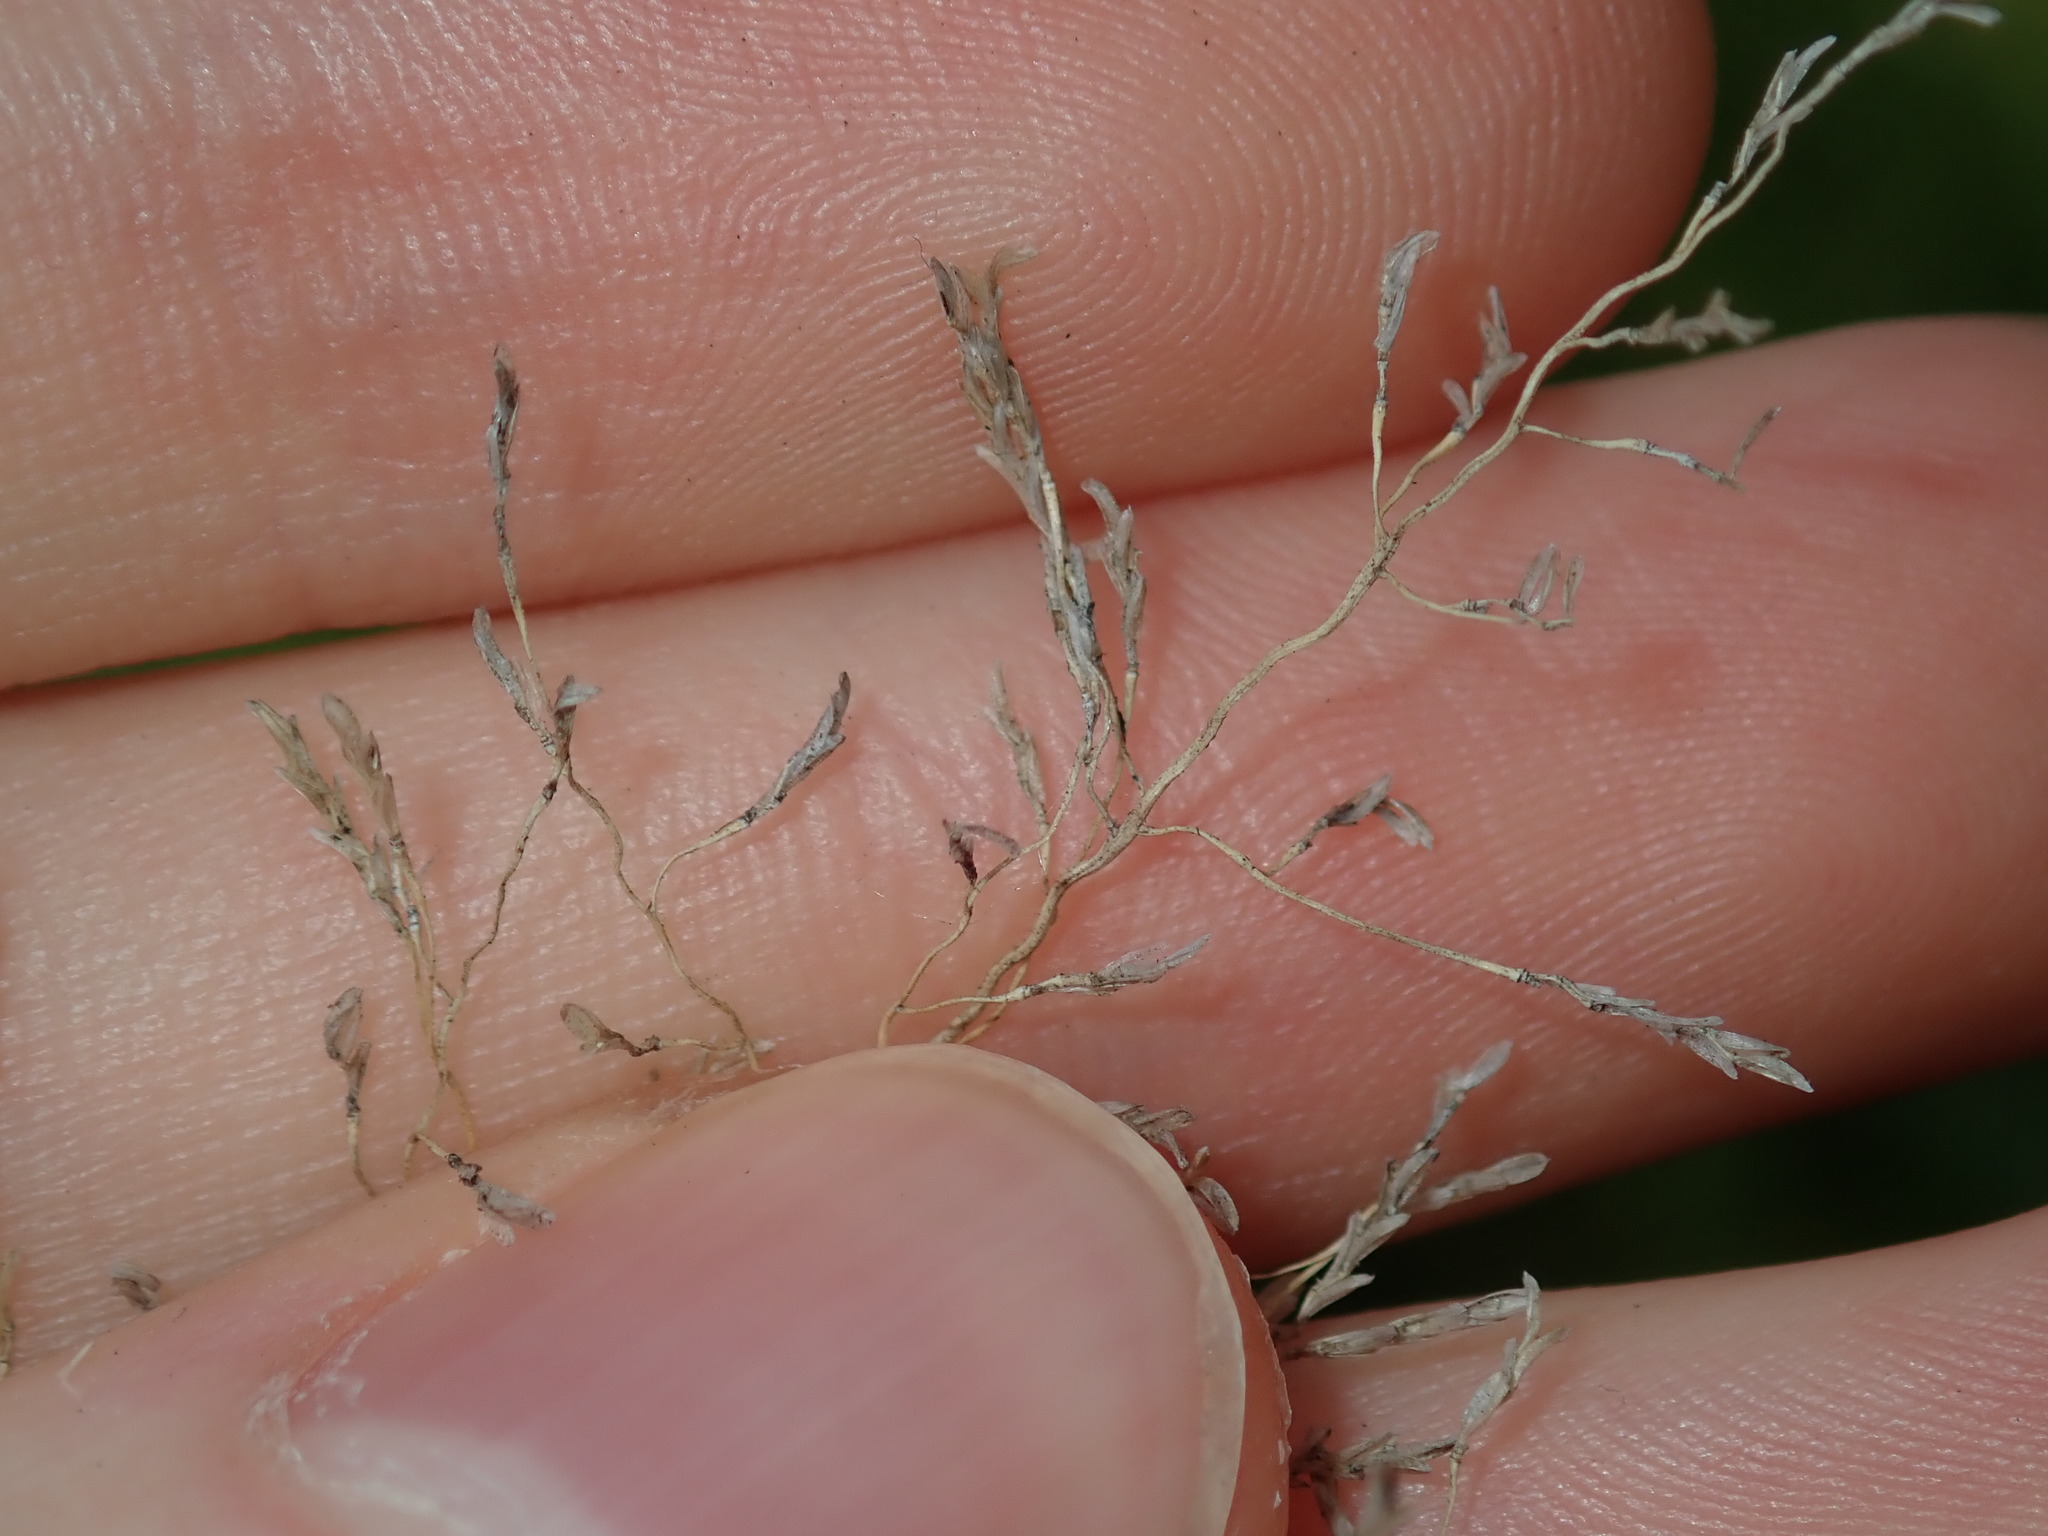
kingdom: Plantae
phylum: Tracheophyta
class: Liliopsida
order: Poales
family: Poaceae
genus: Eragrostis
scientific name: Eragrostis curvula
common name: African love-grass
